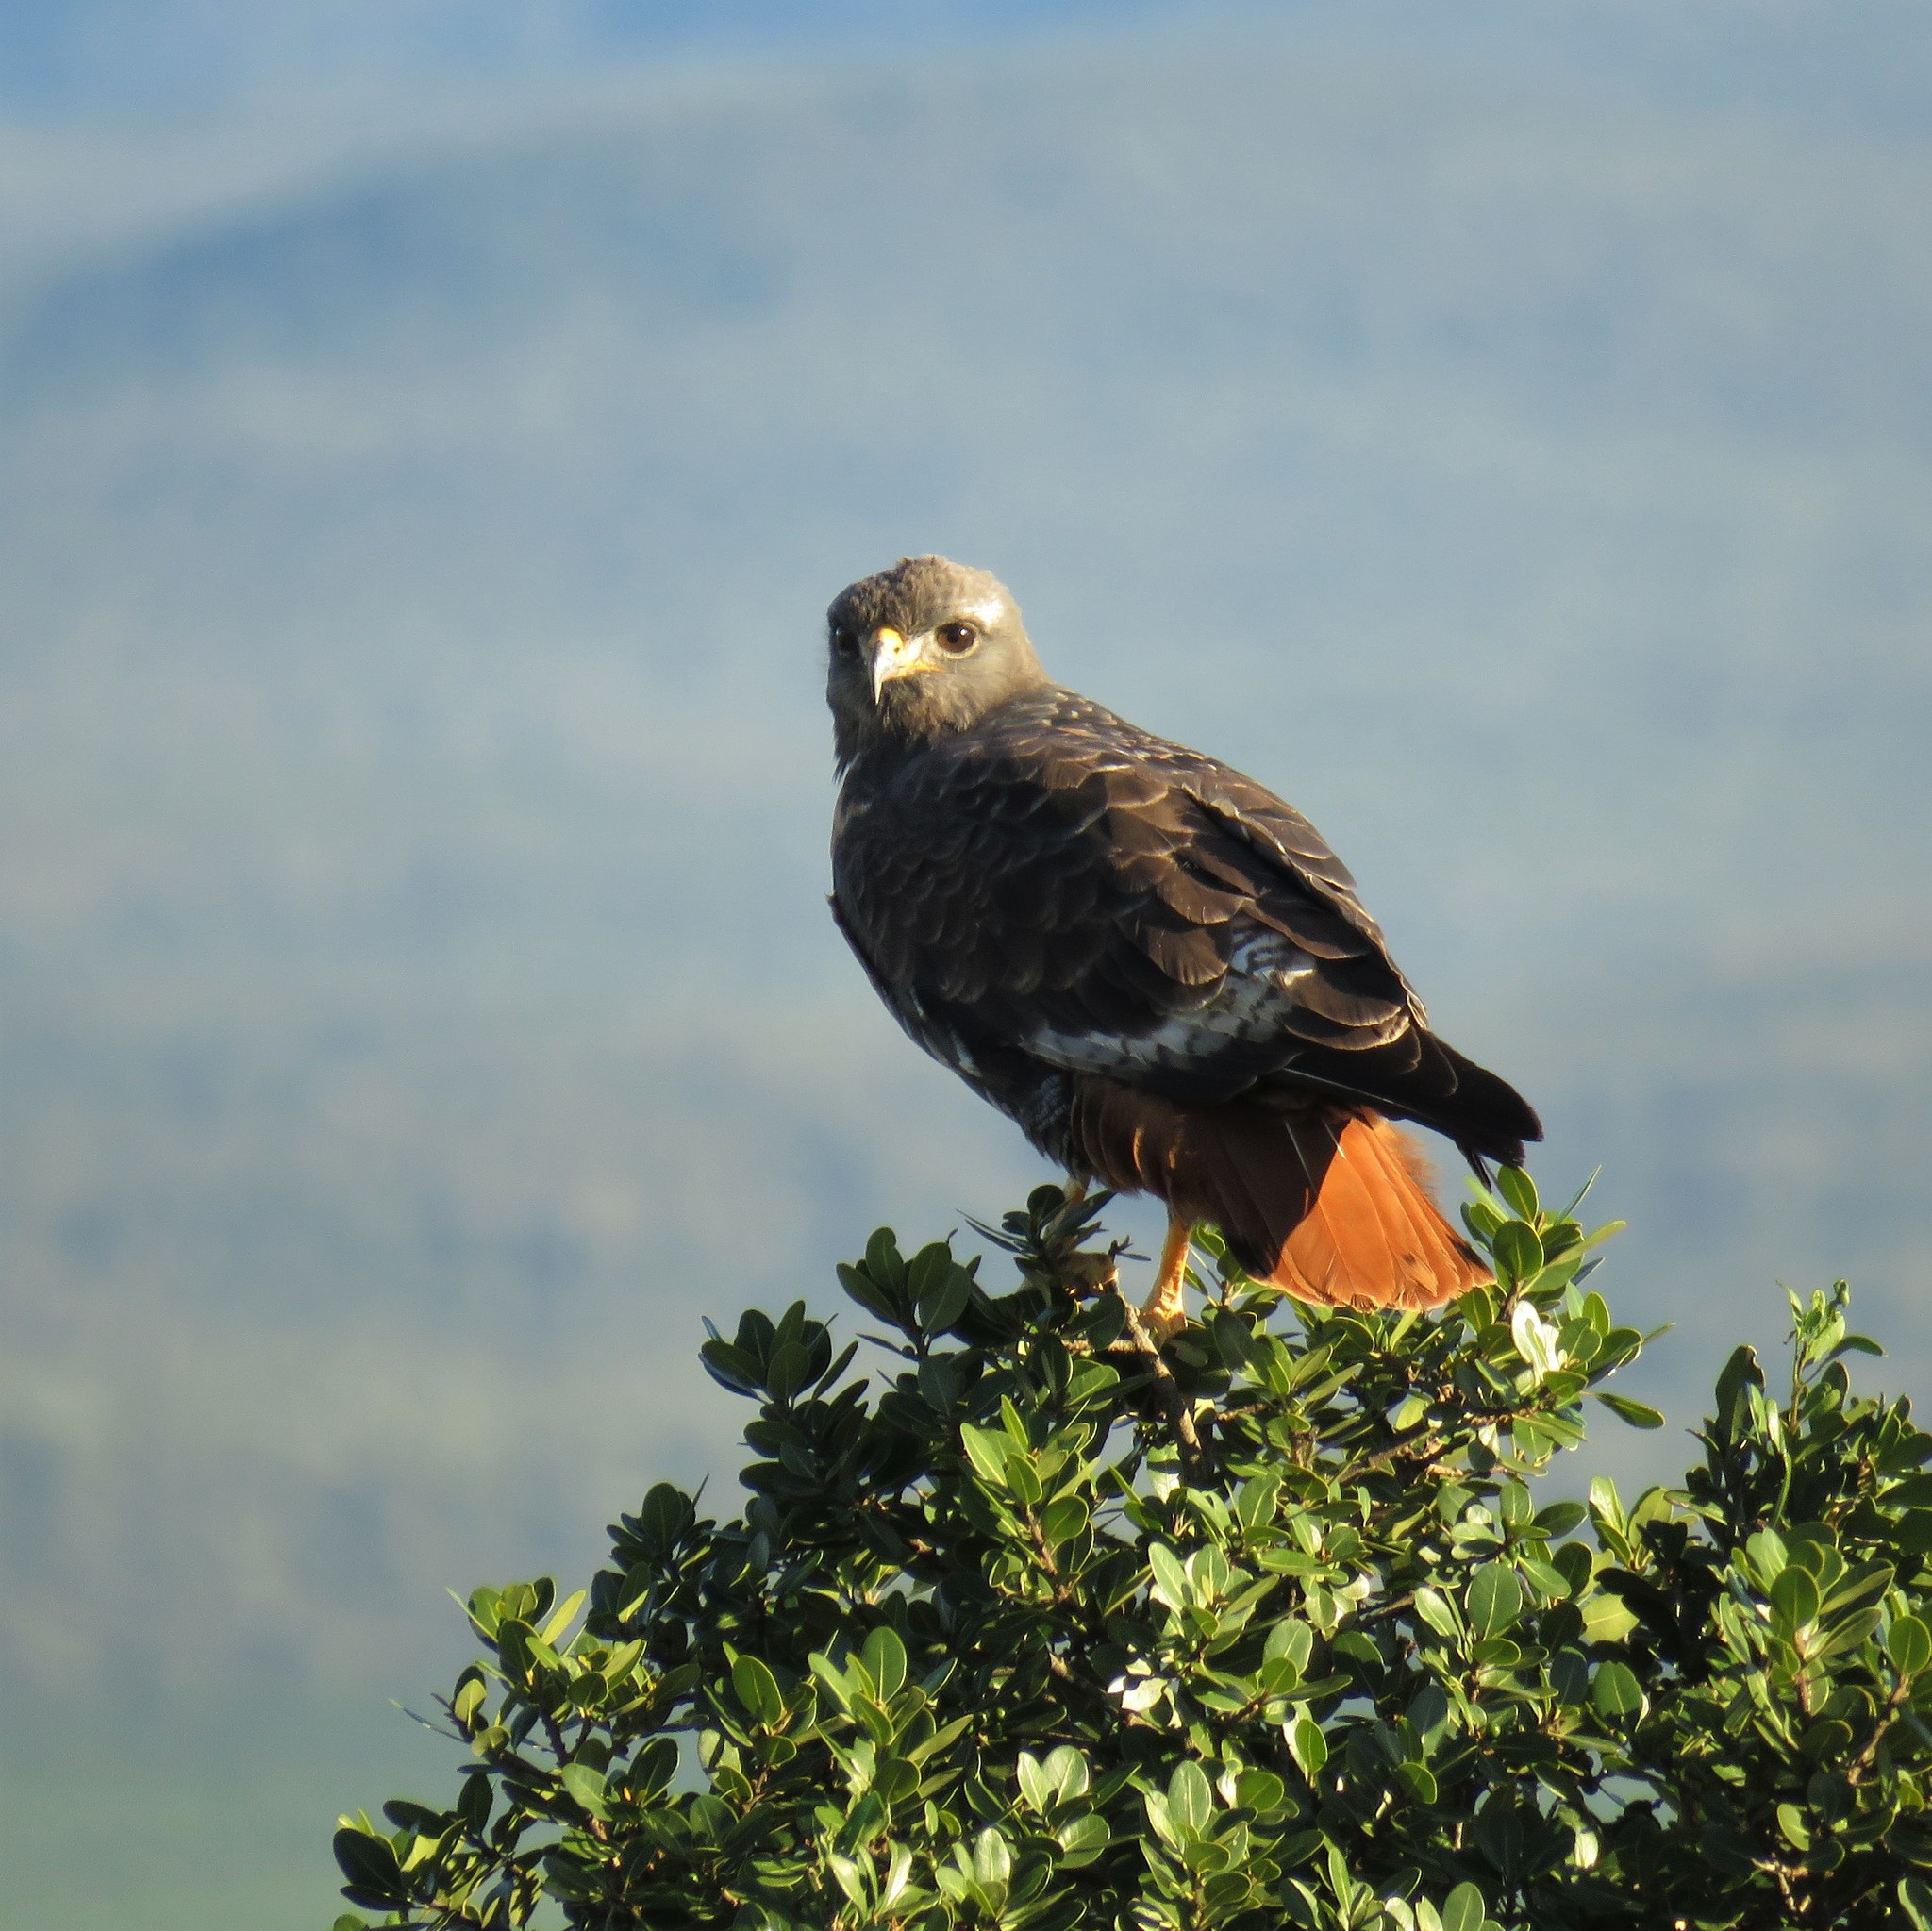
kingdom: Animalia
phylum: Chordata
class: Aves
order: Accipitriformes
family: Accipitridae
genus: Buteo
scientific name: Buteo rufofuscus
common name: Jackal buzzard
